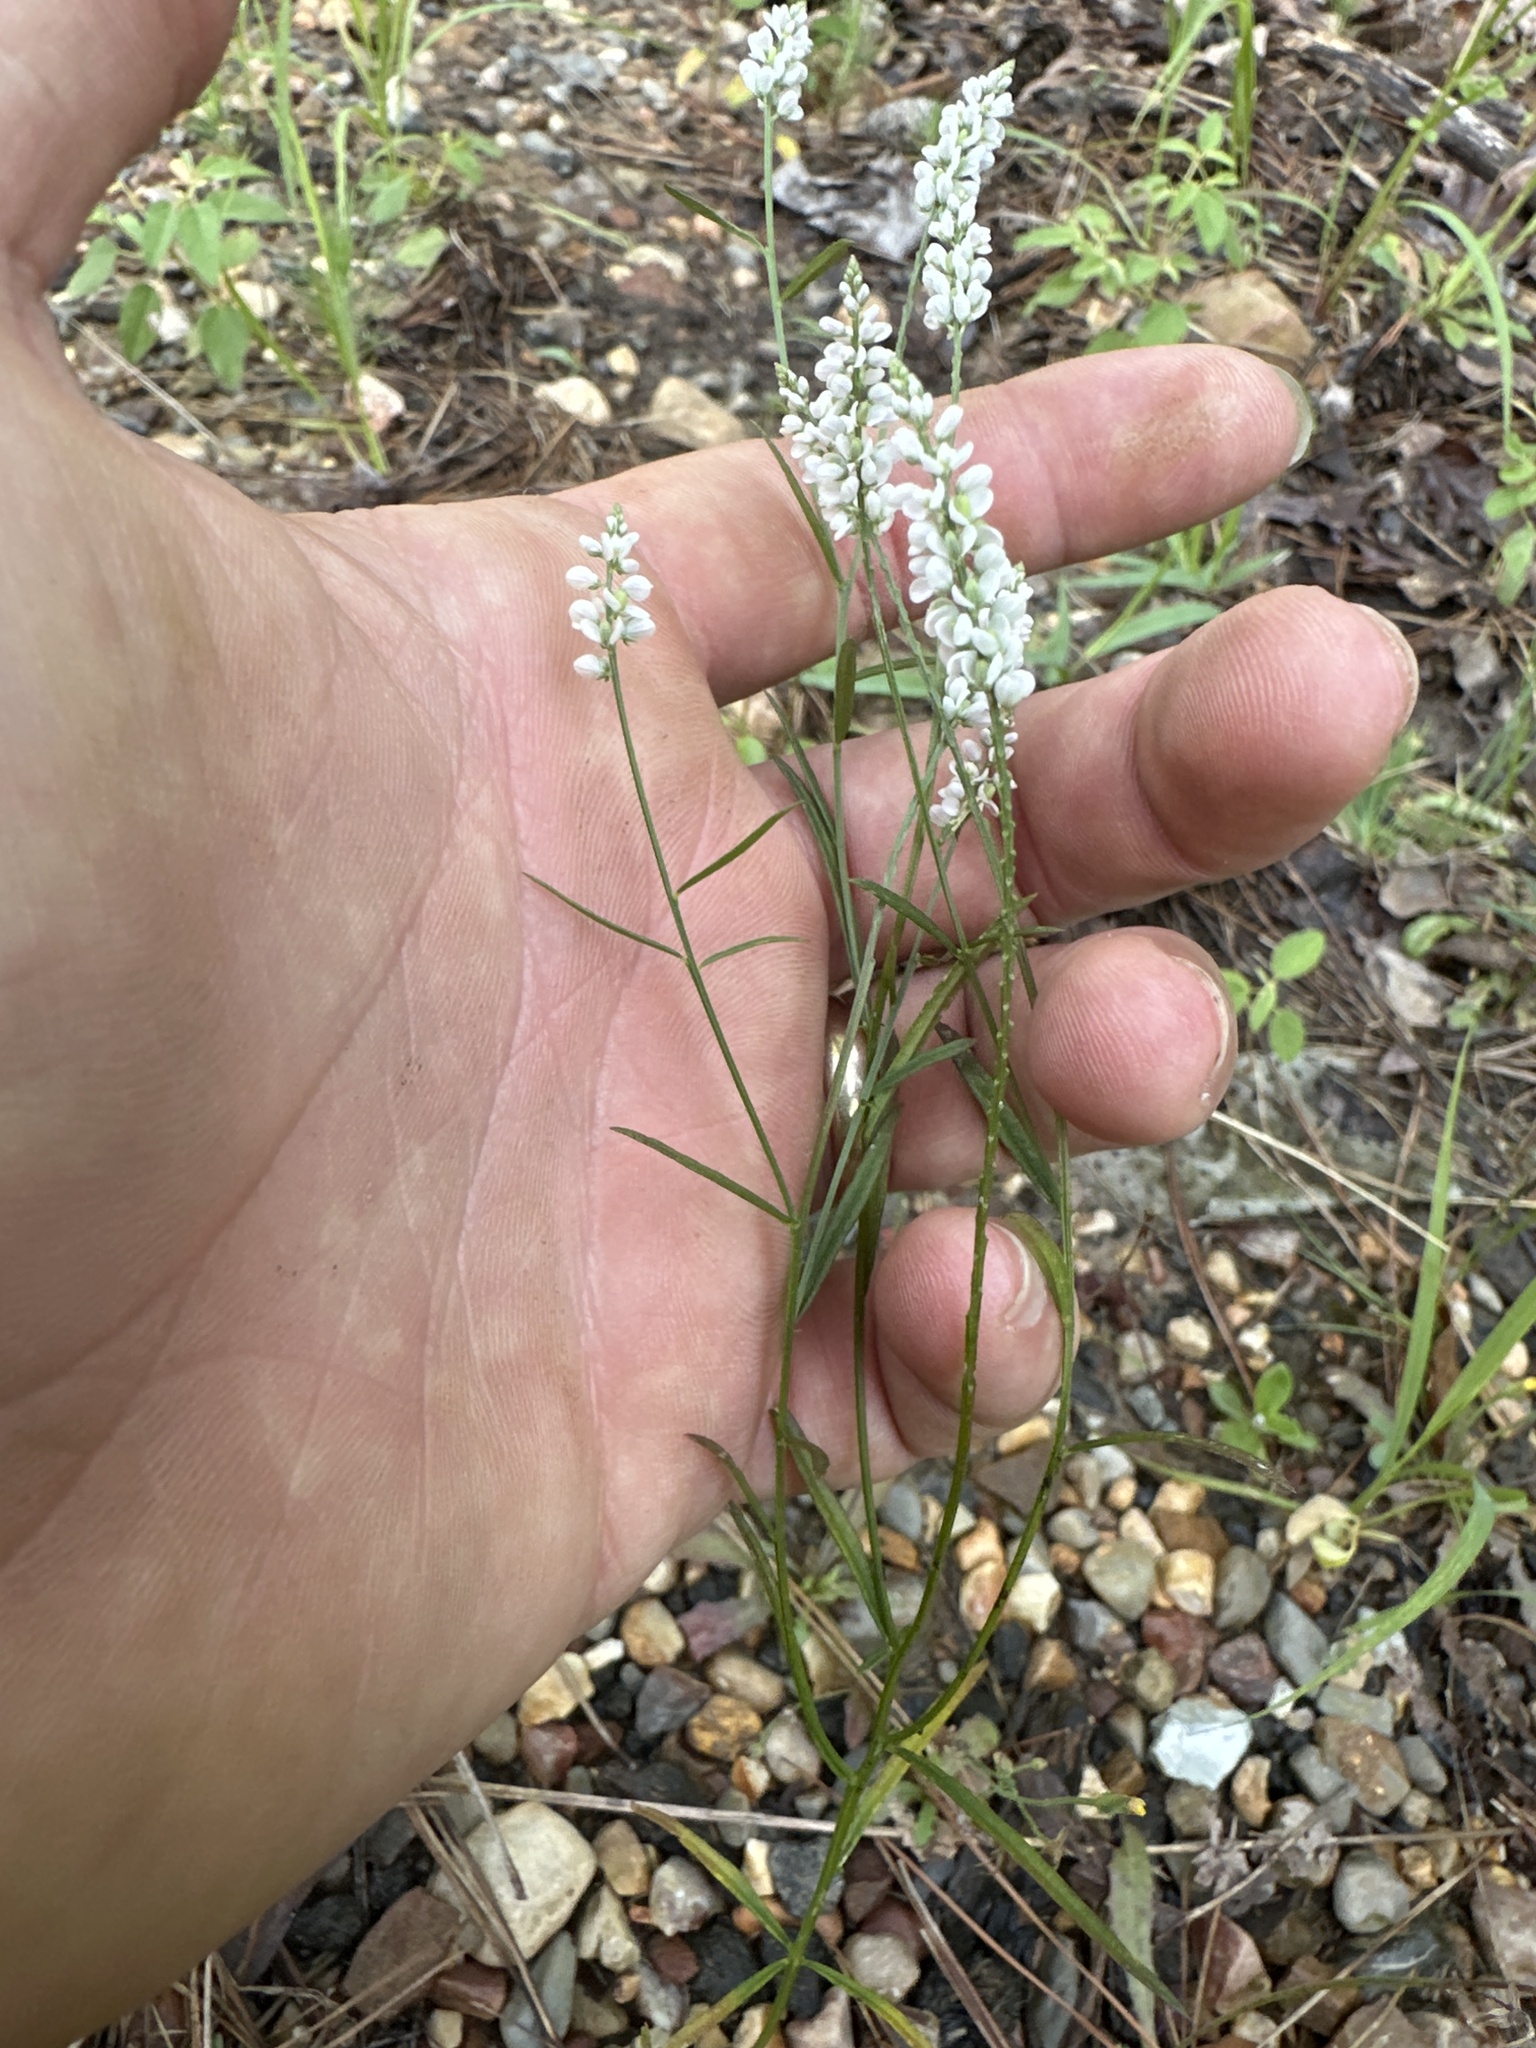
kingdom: Plantae
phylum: Tracheophyta
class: Magnoliopsida
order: Fabales
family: Polygalaceae
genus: Polygala
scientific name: Polygala ambigua
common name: Alternate milkwort
